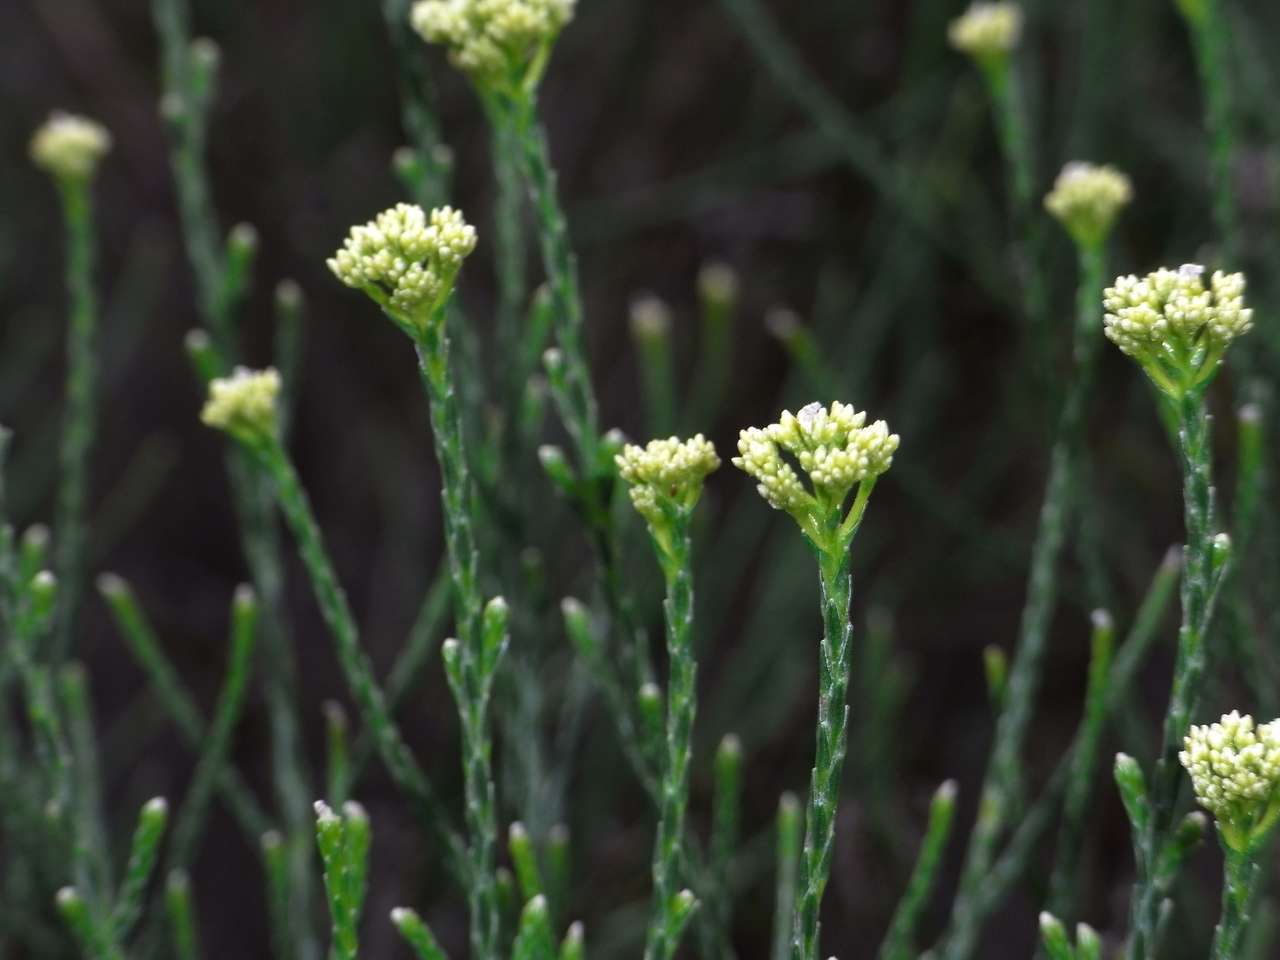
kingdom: Plantae
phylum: Tracheophyta
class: Magnoliopsida
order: Asterales
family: Asteraceae
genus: Haeckeria
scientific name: Haeckeria pholidota
